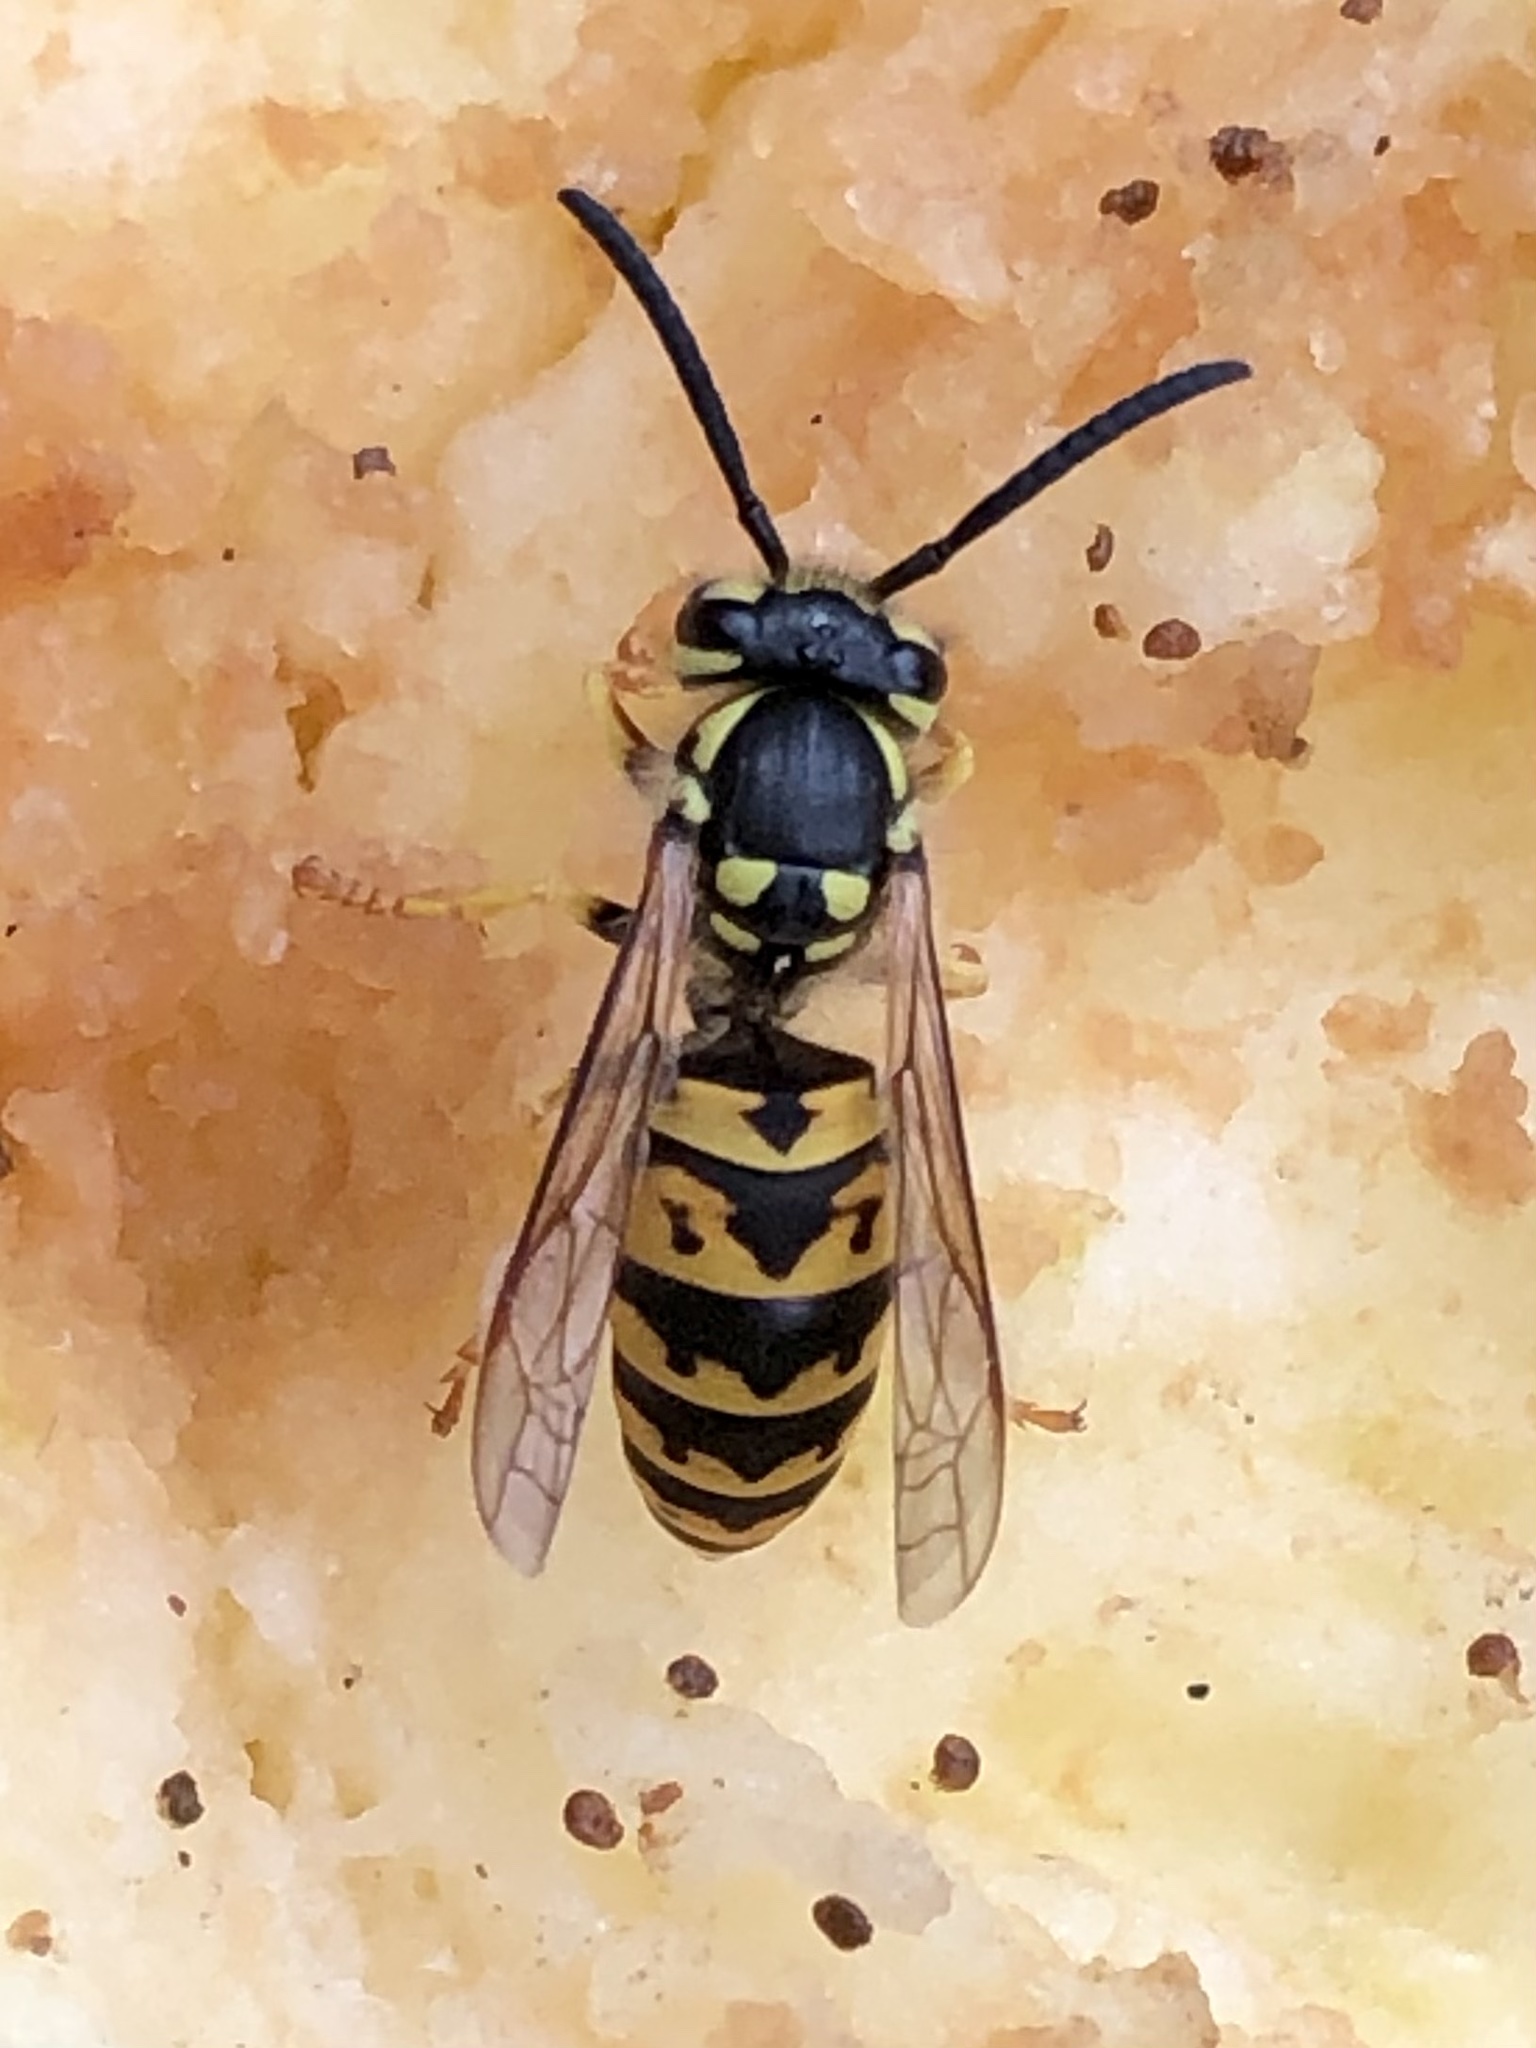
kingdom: Animalia
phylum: Arthropoda
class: Insecta
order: Hymenoptera
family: Vespidae
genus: Vespula
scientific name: Vespula germanica
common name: German wasp
